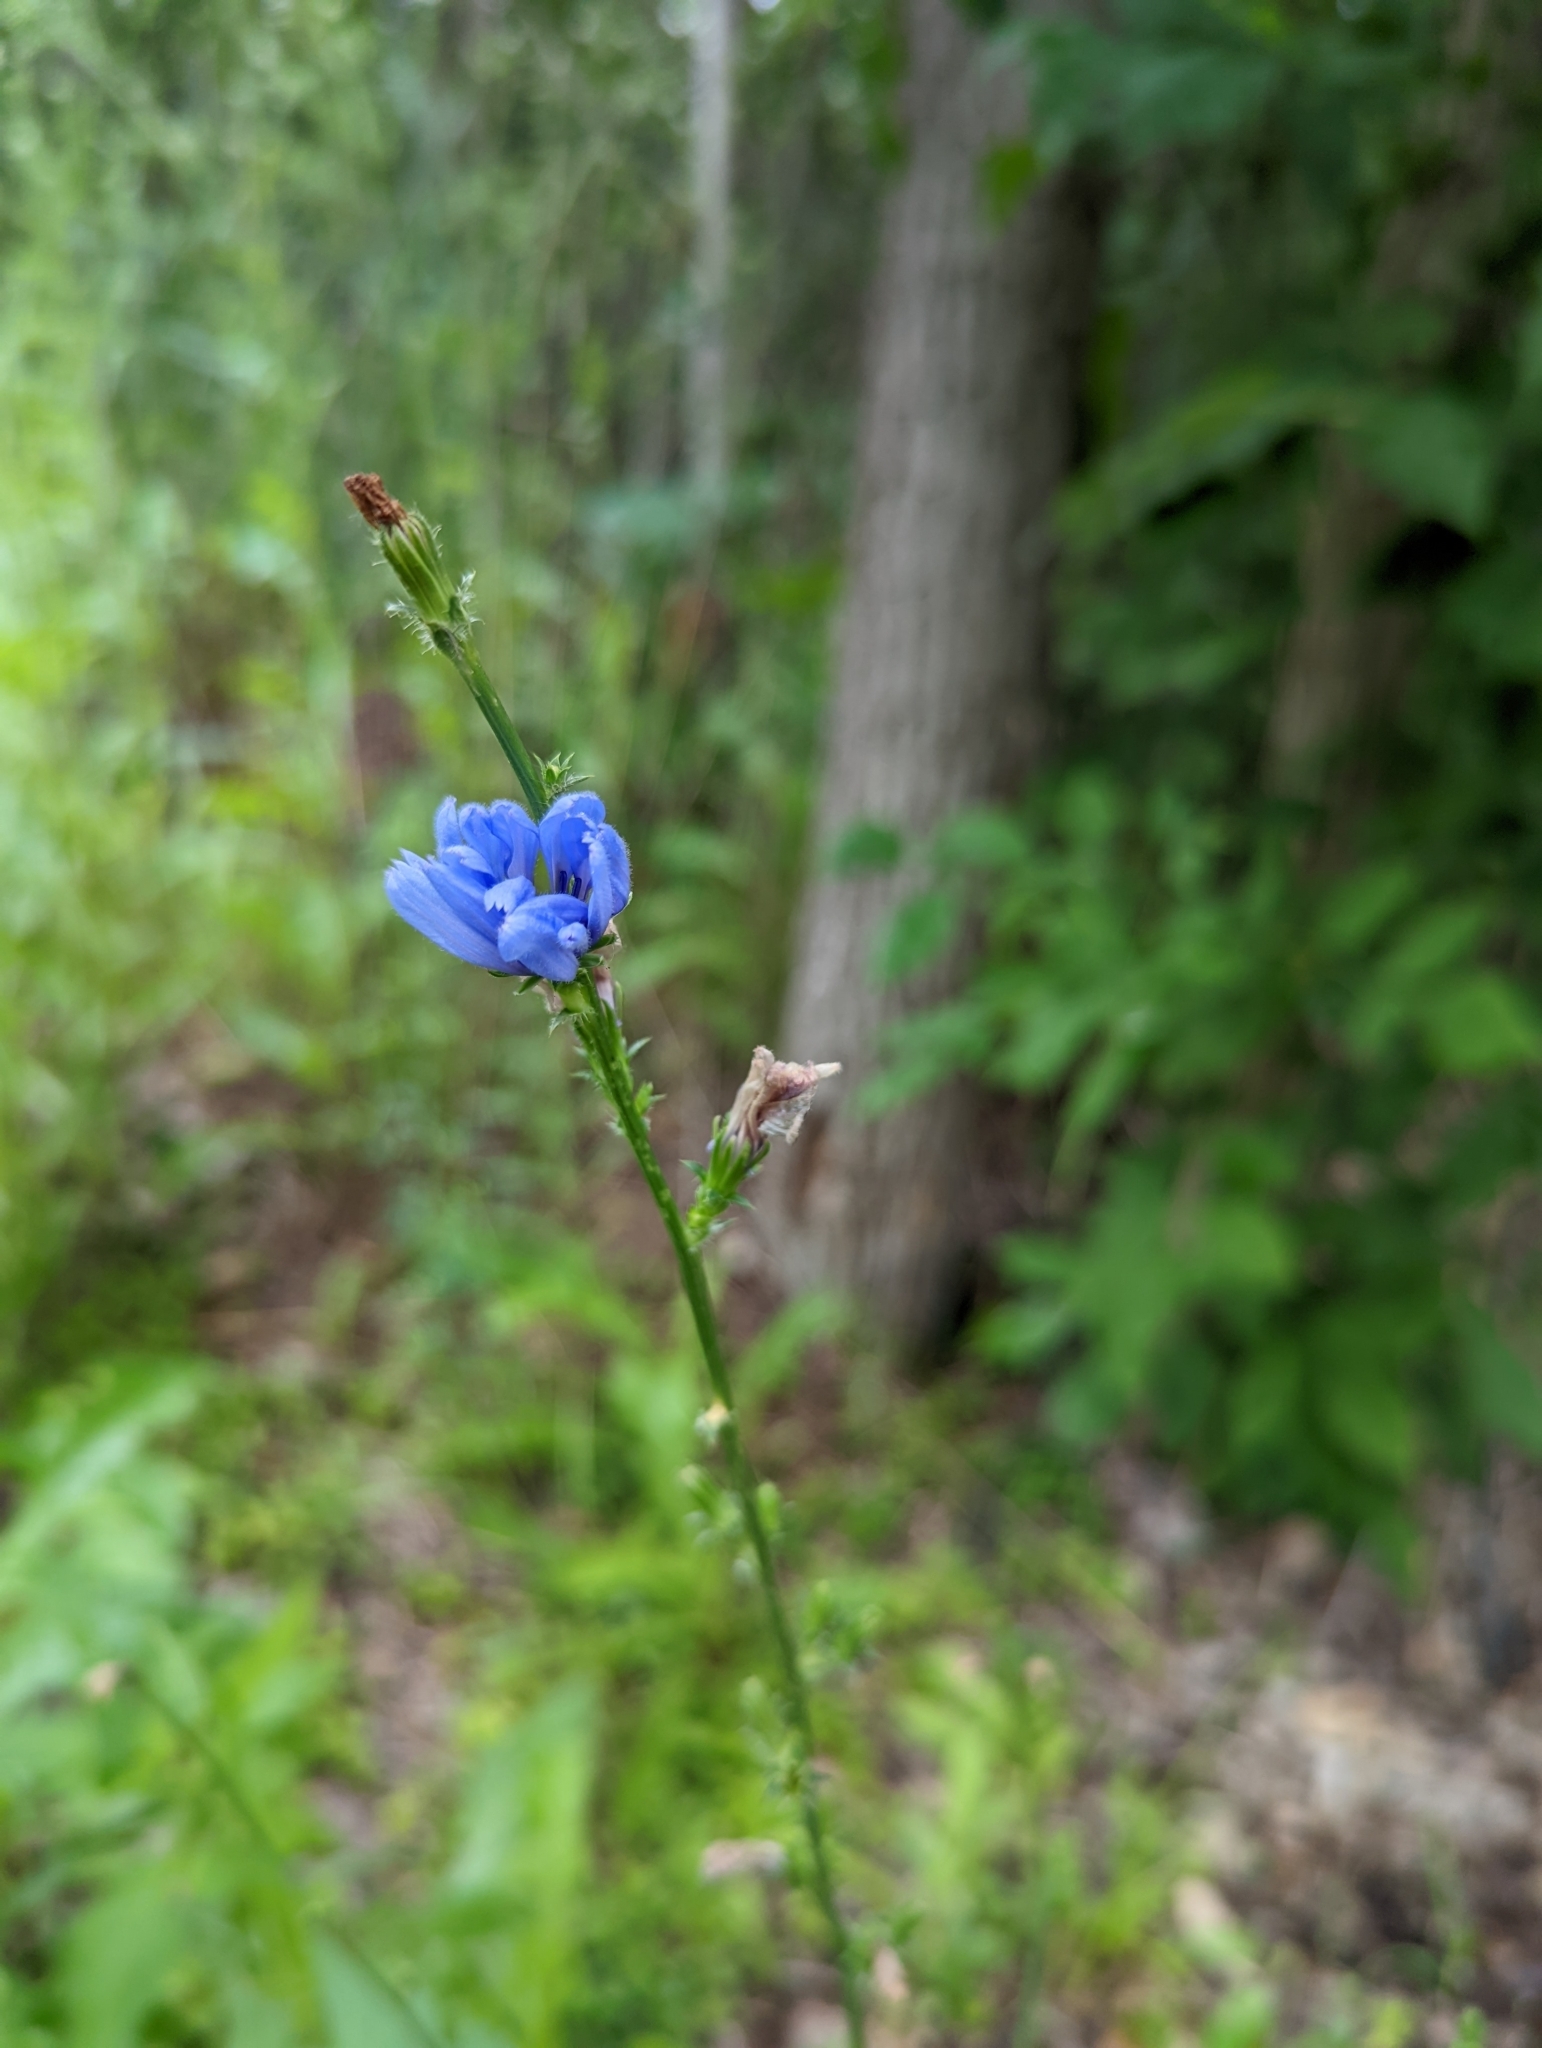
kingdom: Plantae
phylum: Tracheophyta
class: Magnoliopsida
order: Asterales
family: Asteraceae
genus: Cichorium
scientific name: Cichorium intybus
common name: Chicory
